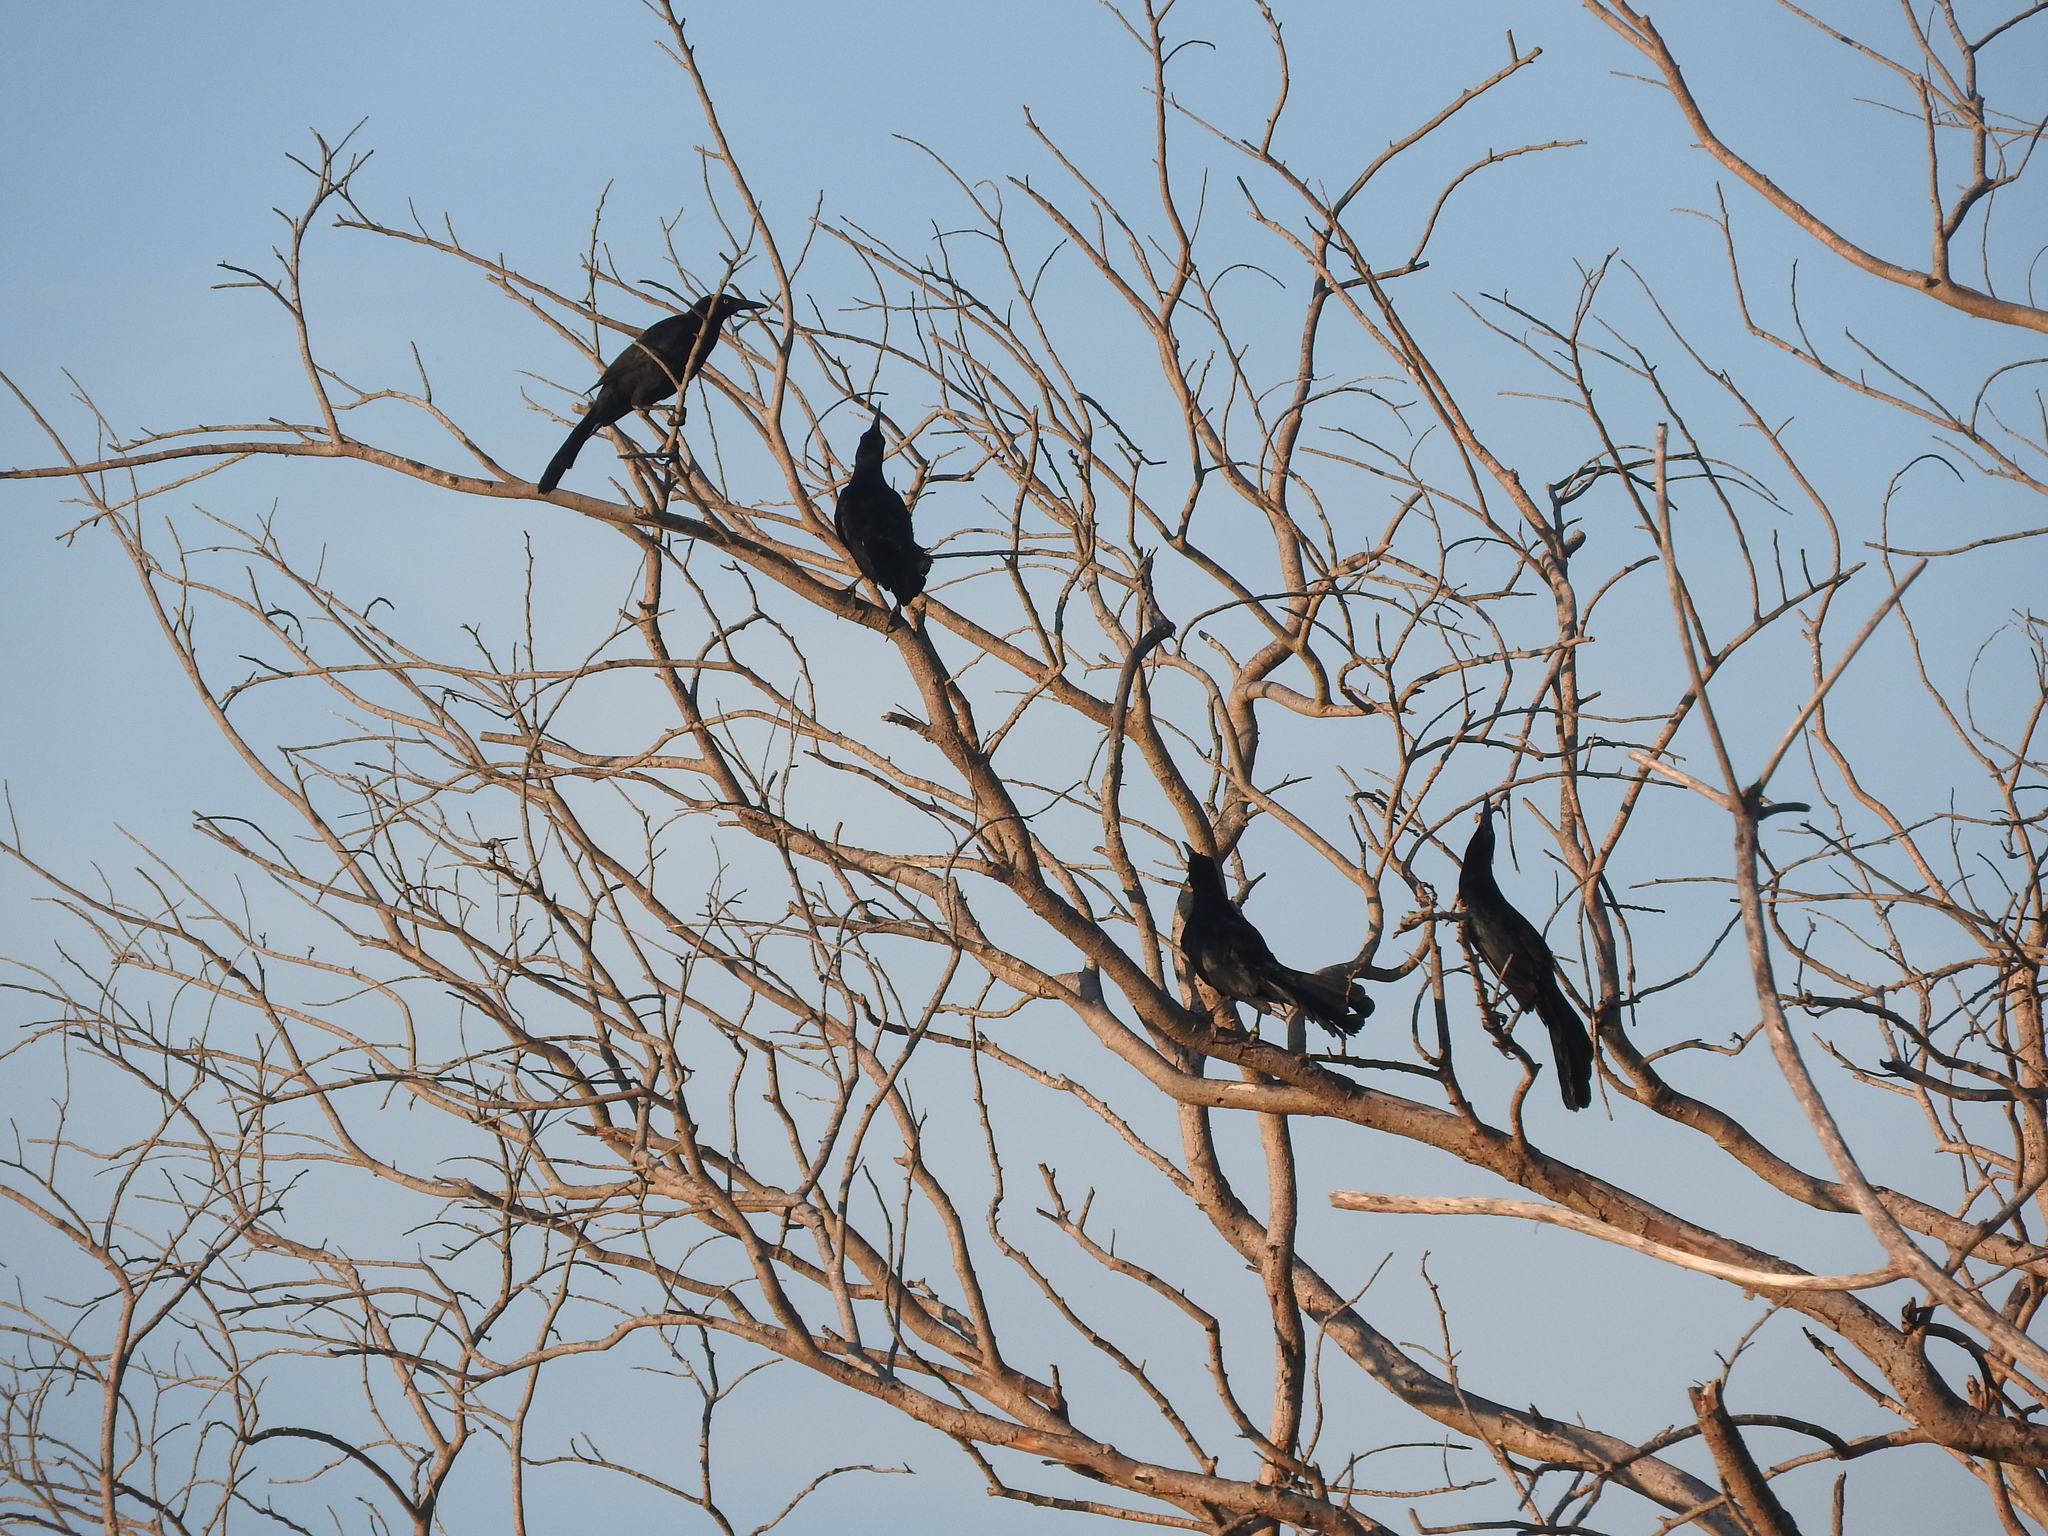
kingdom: Animalia
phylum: Chordata
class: Aves
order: Passeriformes
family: Icteridae
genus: Quiscalus
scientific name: Quiscalus mexicanus
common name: Great-tailed grackle
